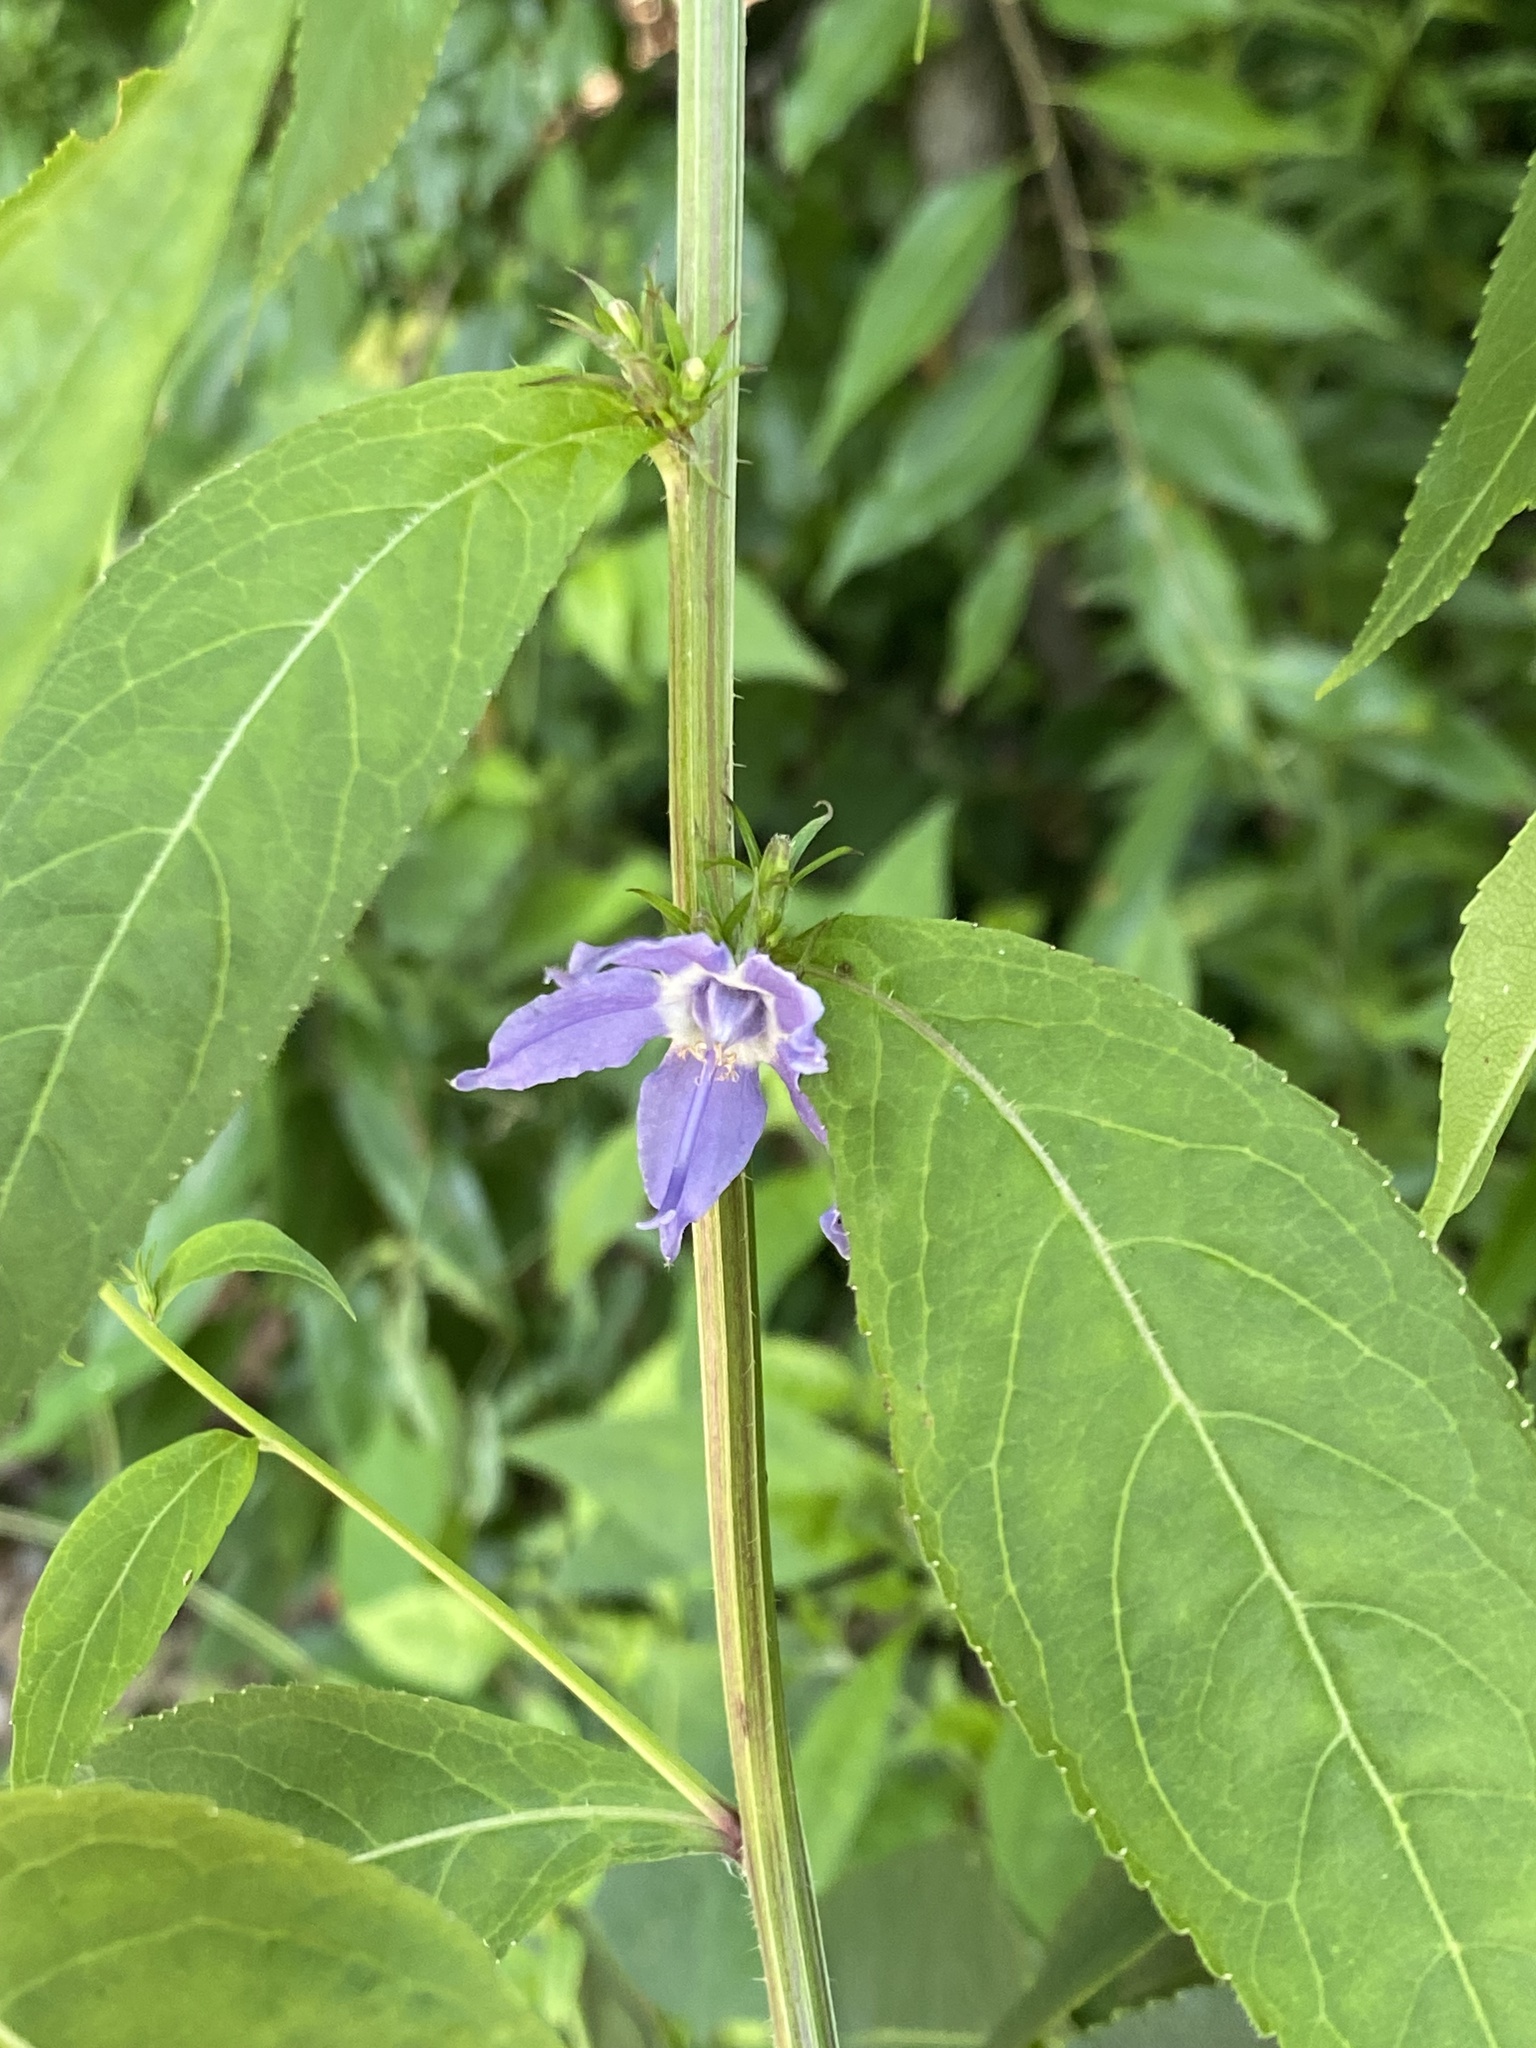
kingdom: Plantae
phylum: Tracheophyta
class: Magnoliopsida
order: Asterales
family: Campanulaceae
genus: Campanulastrum
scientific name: Campanulastrum americanum
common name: American bellflower
